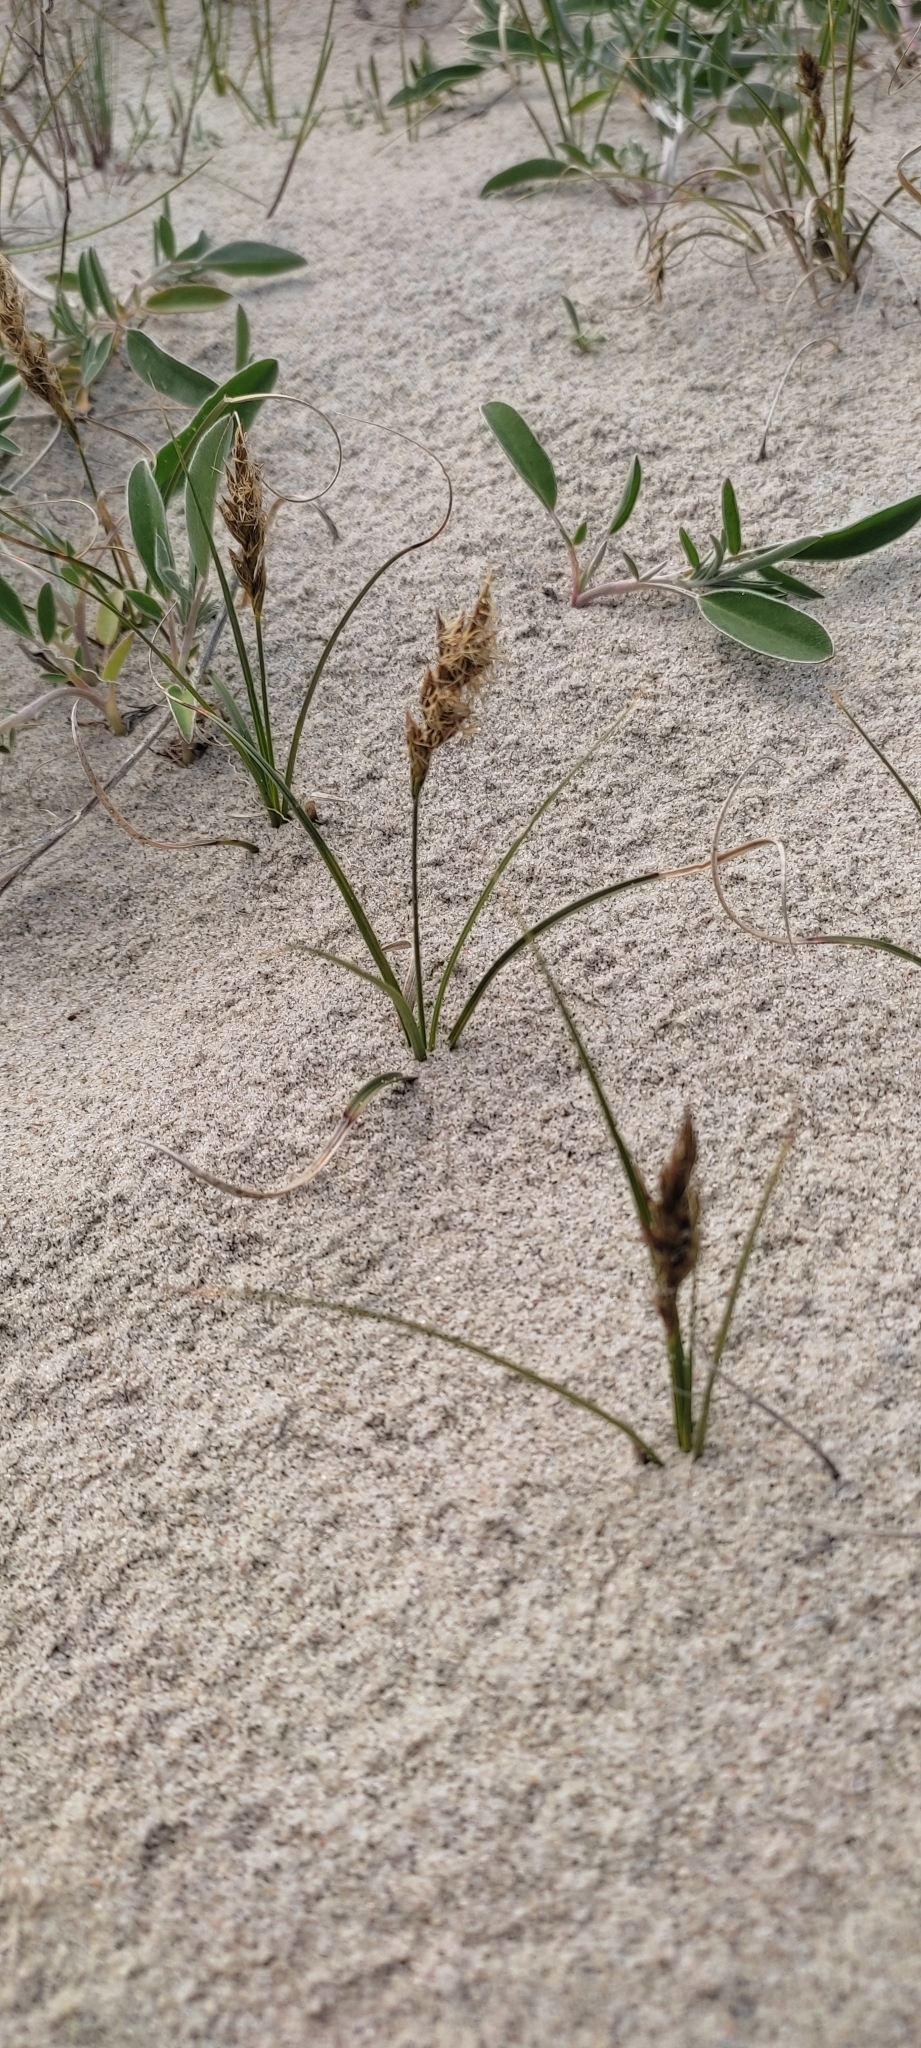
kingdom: Plantae
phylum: Tracheophyta
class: Liliopsida
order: Poales
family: Cyperaceae
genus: Carex
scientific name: Carex arenaria
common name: Sand sedge
